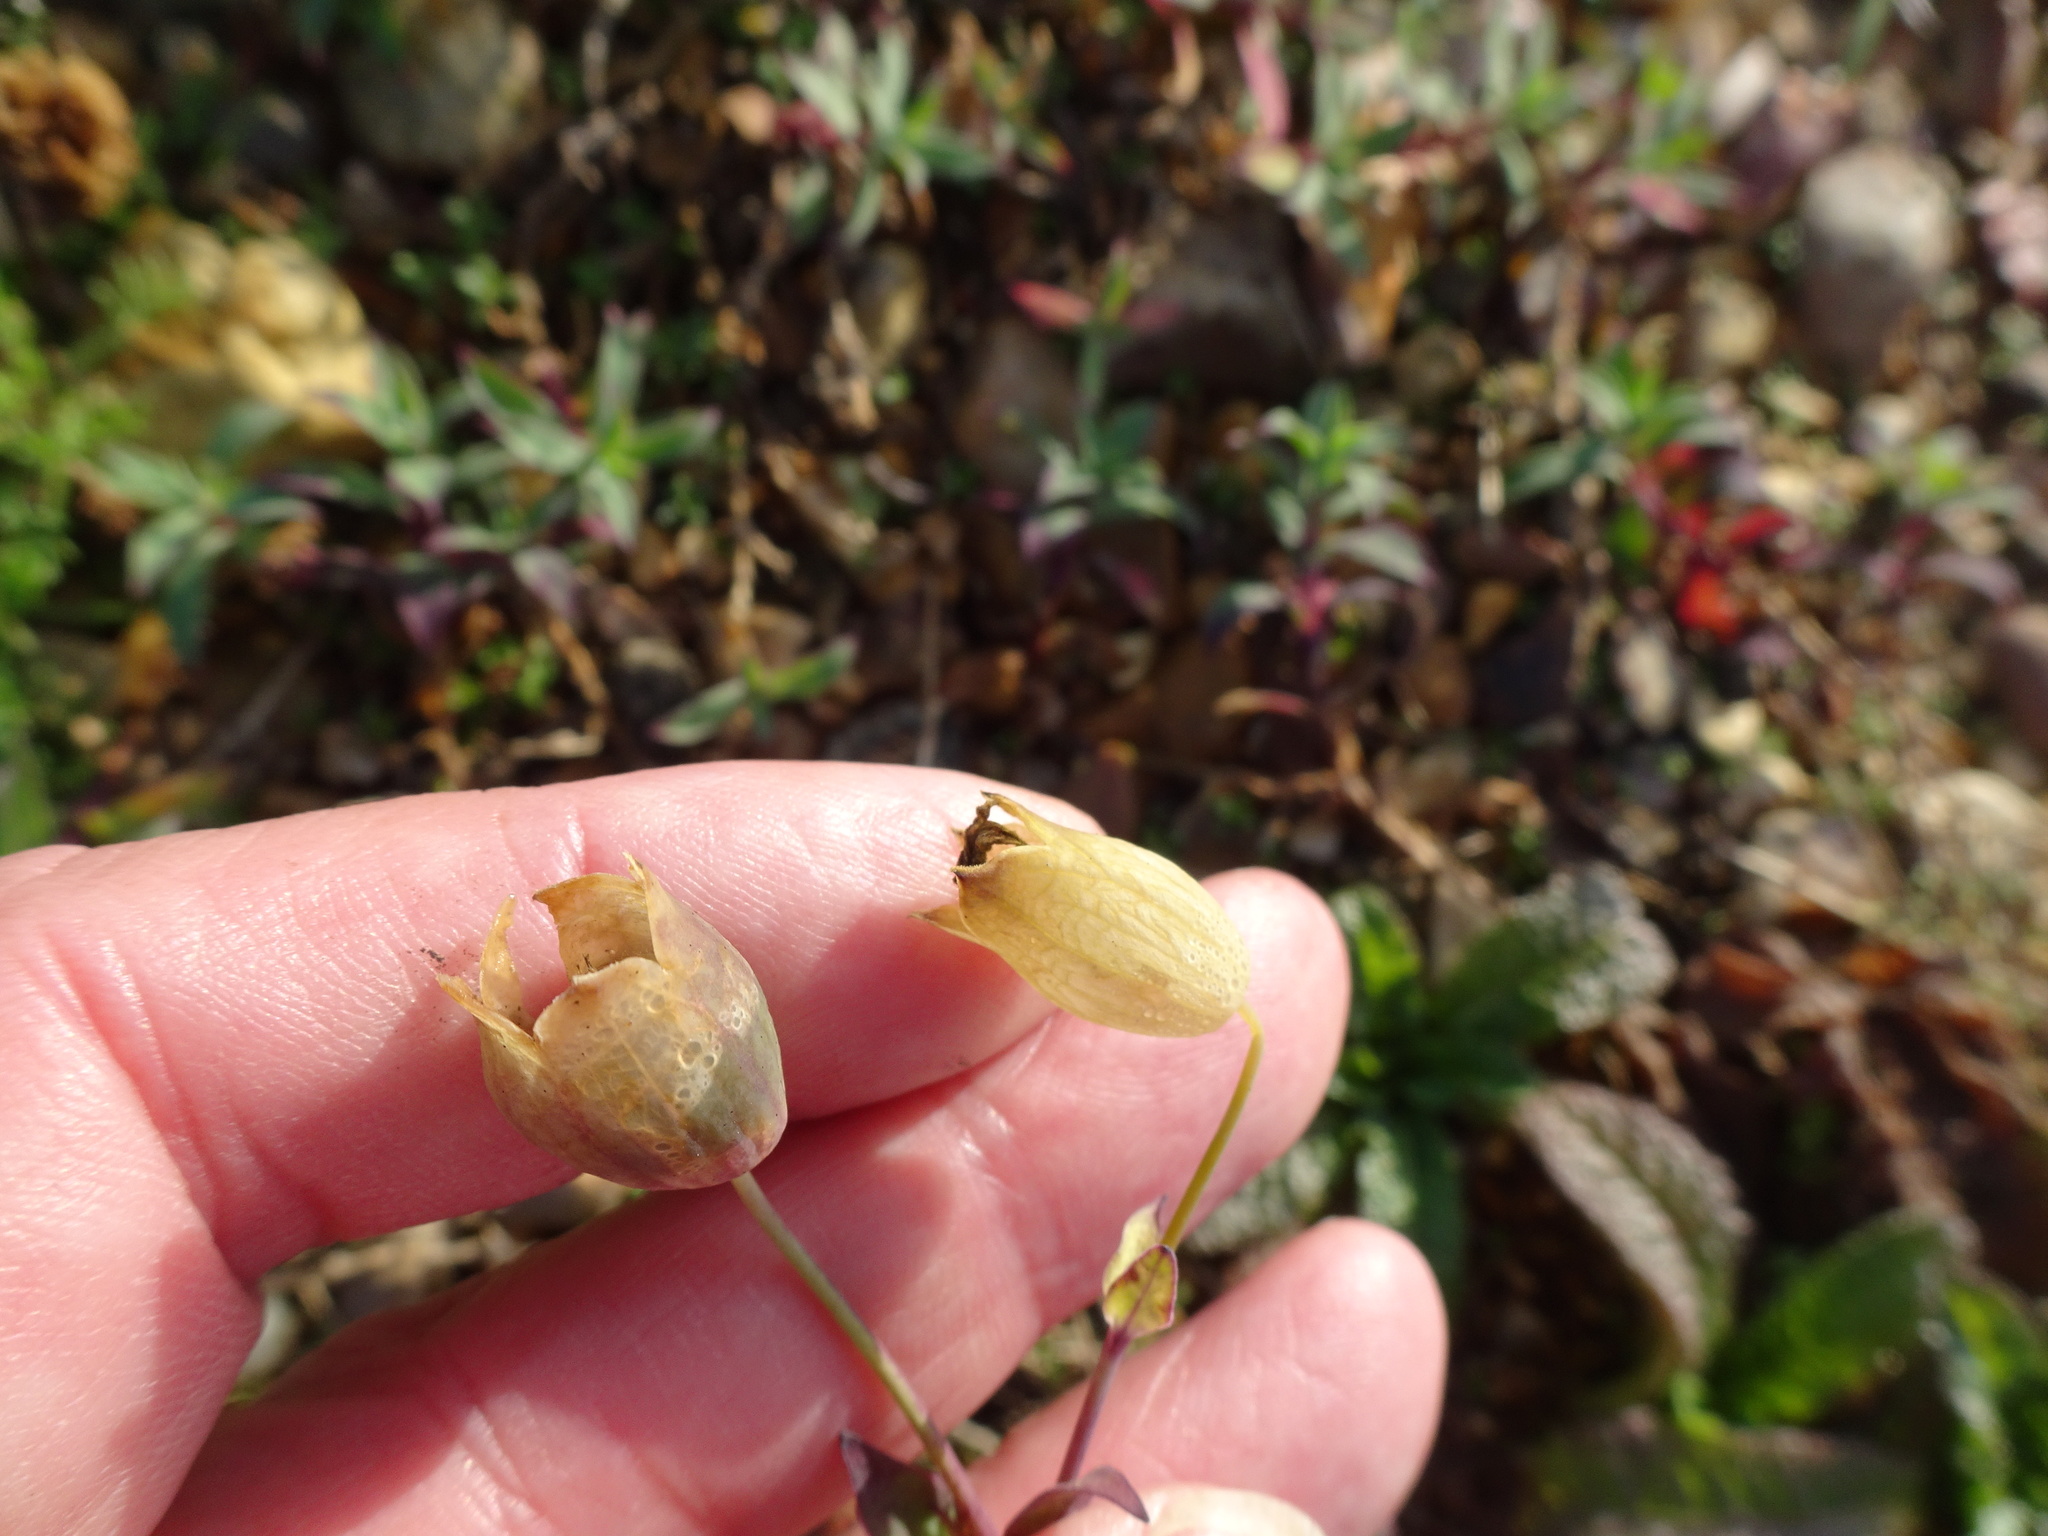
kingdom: Plantae
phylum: Tracheophyta
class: Magnoliopsida
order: Caryophyllales
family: Caryophyllaceae
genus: Silene
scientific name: Silene uniflora
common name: Sea campion
